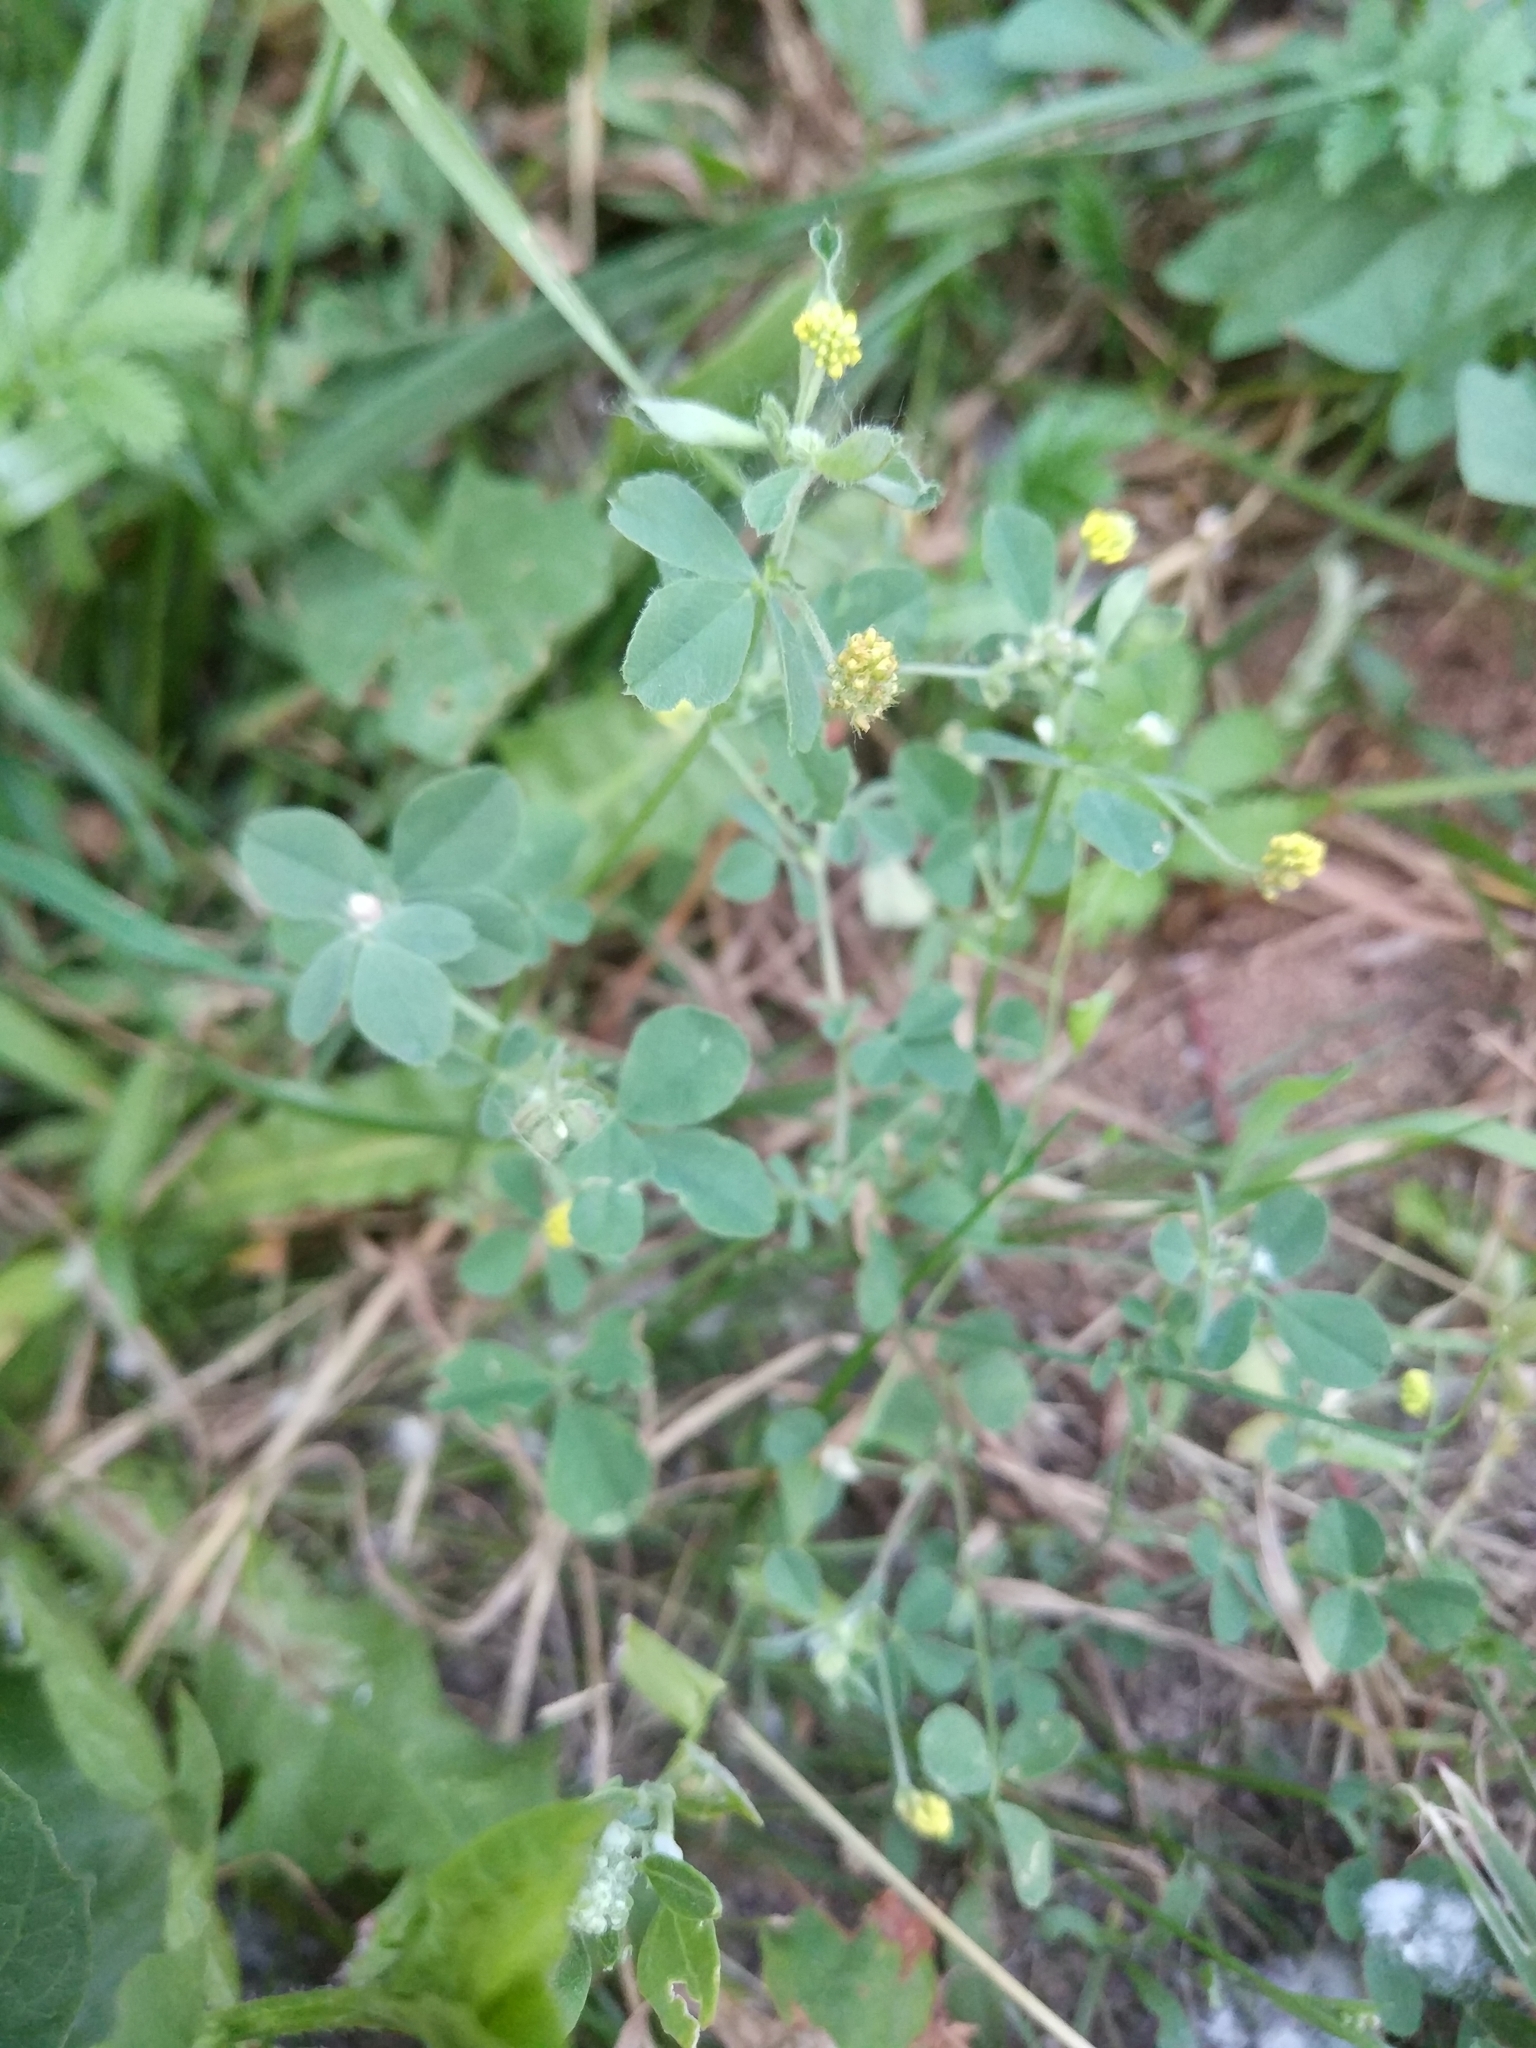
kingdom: Plantae
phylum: Tracheophyta
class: Magnoliopsida
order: Fabales
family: Fabaceae
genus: Medicago
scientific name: Medicago lupulina
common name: Black medick
